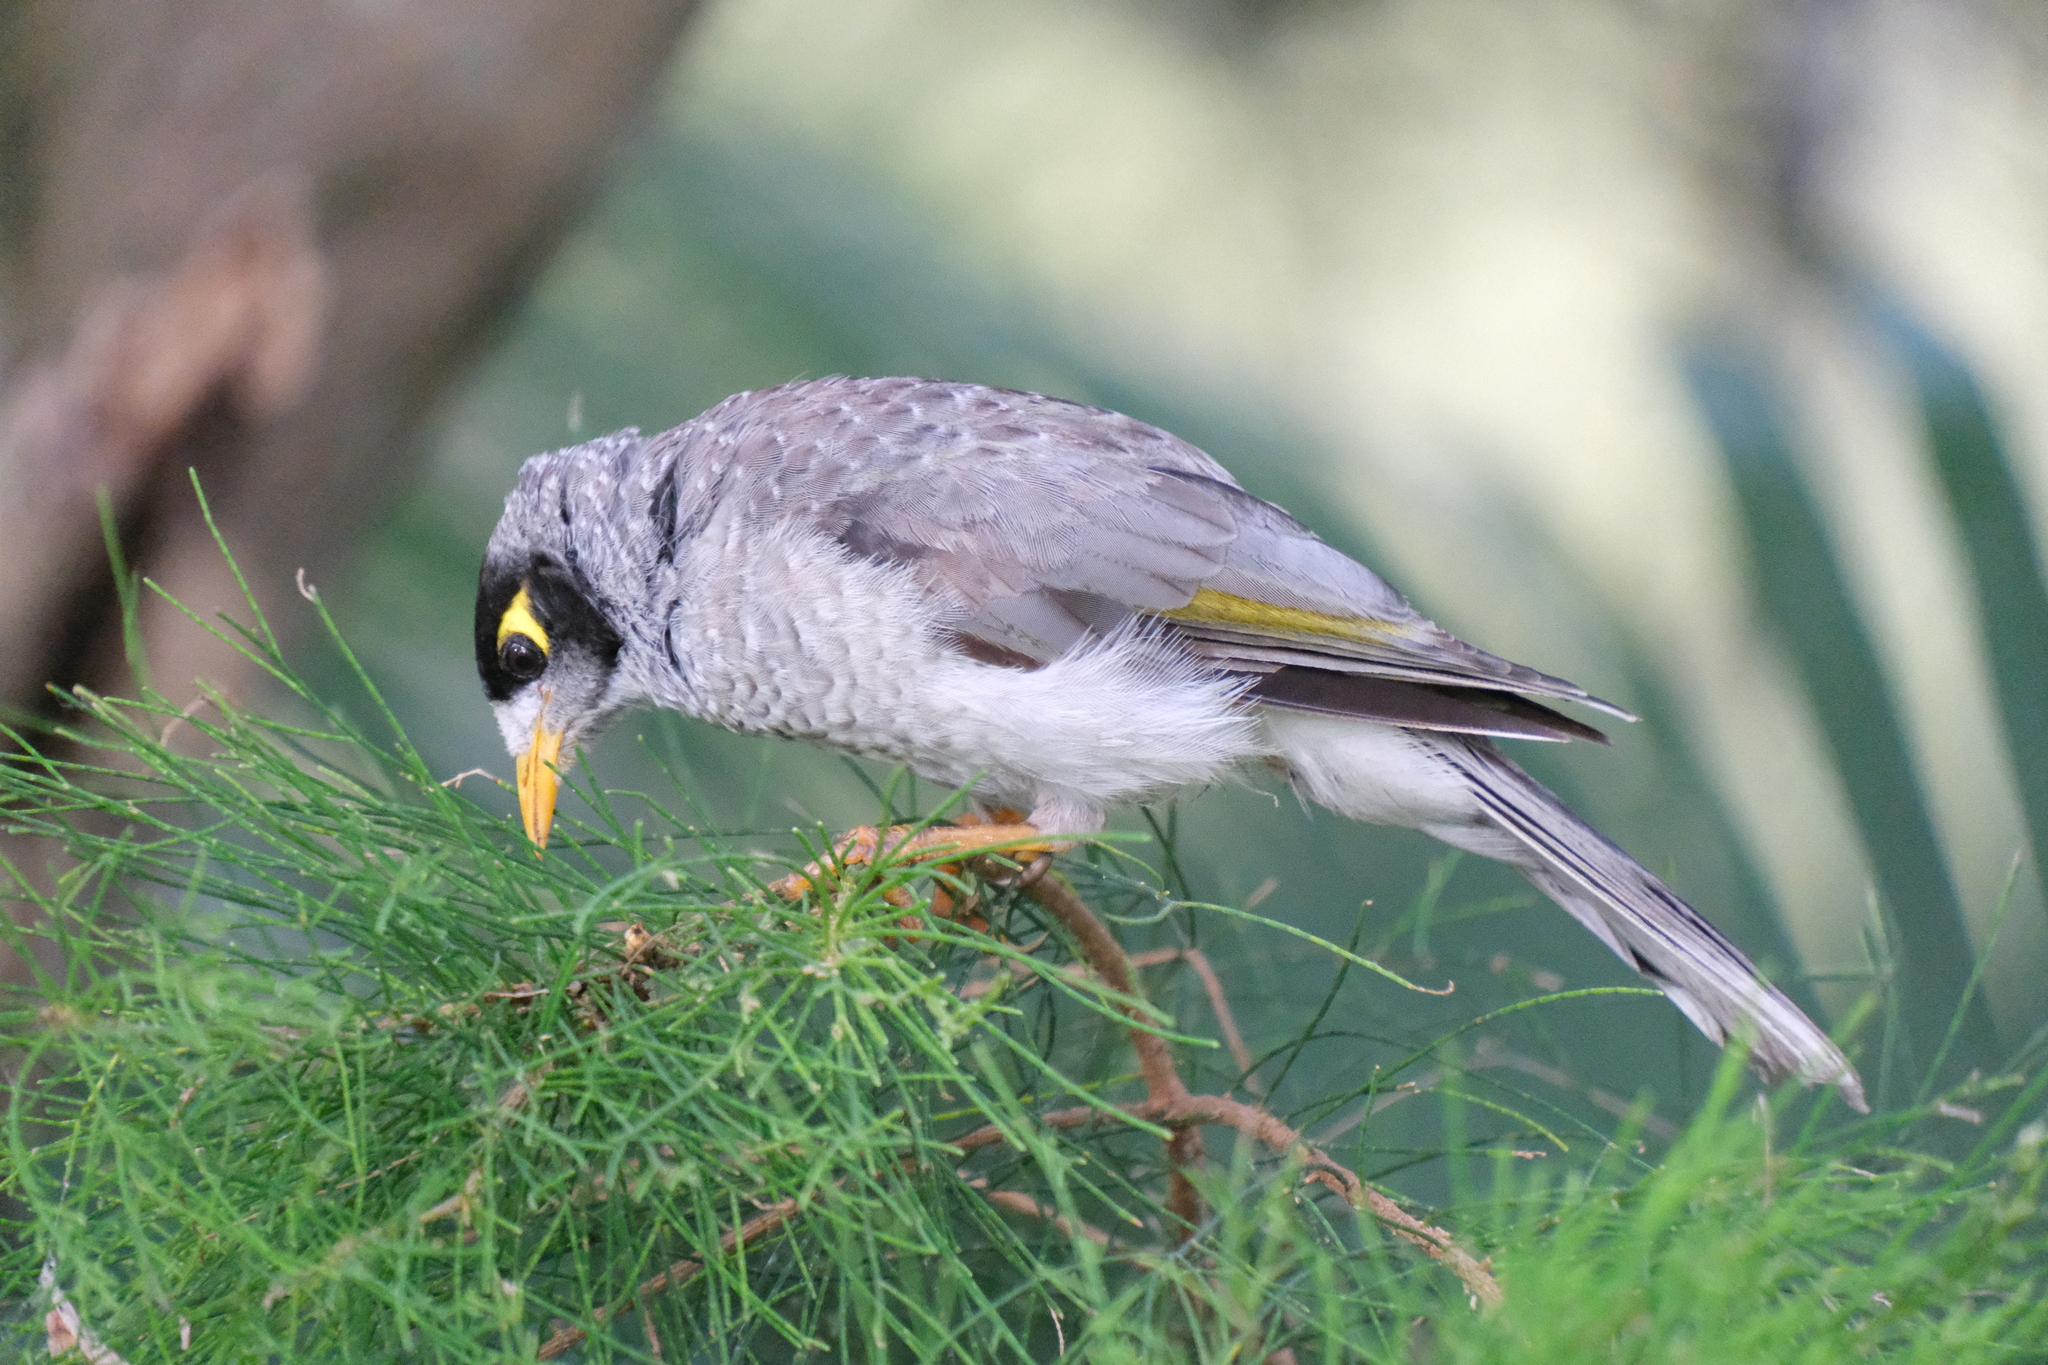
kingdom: Animalia
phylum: Chordata
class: Aves
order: Passeriformes
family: Meliphagidae
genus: Manorina
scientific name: Manorina melanocephala
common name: Noisy miner
